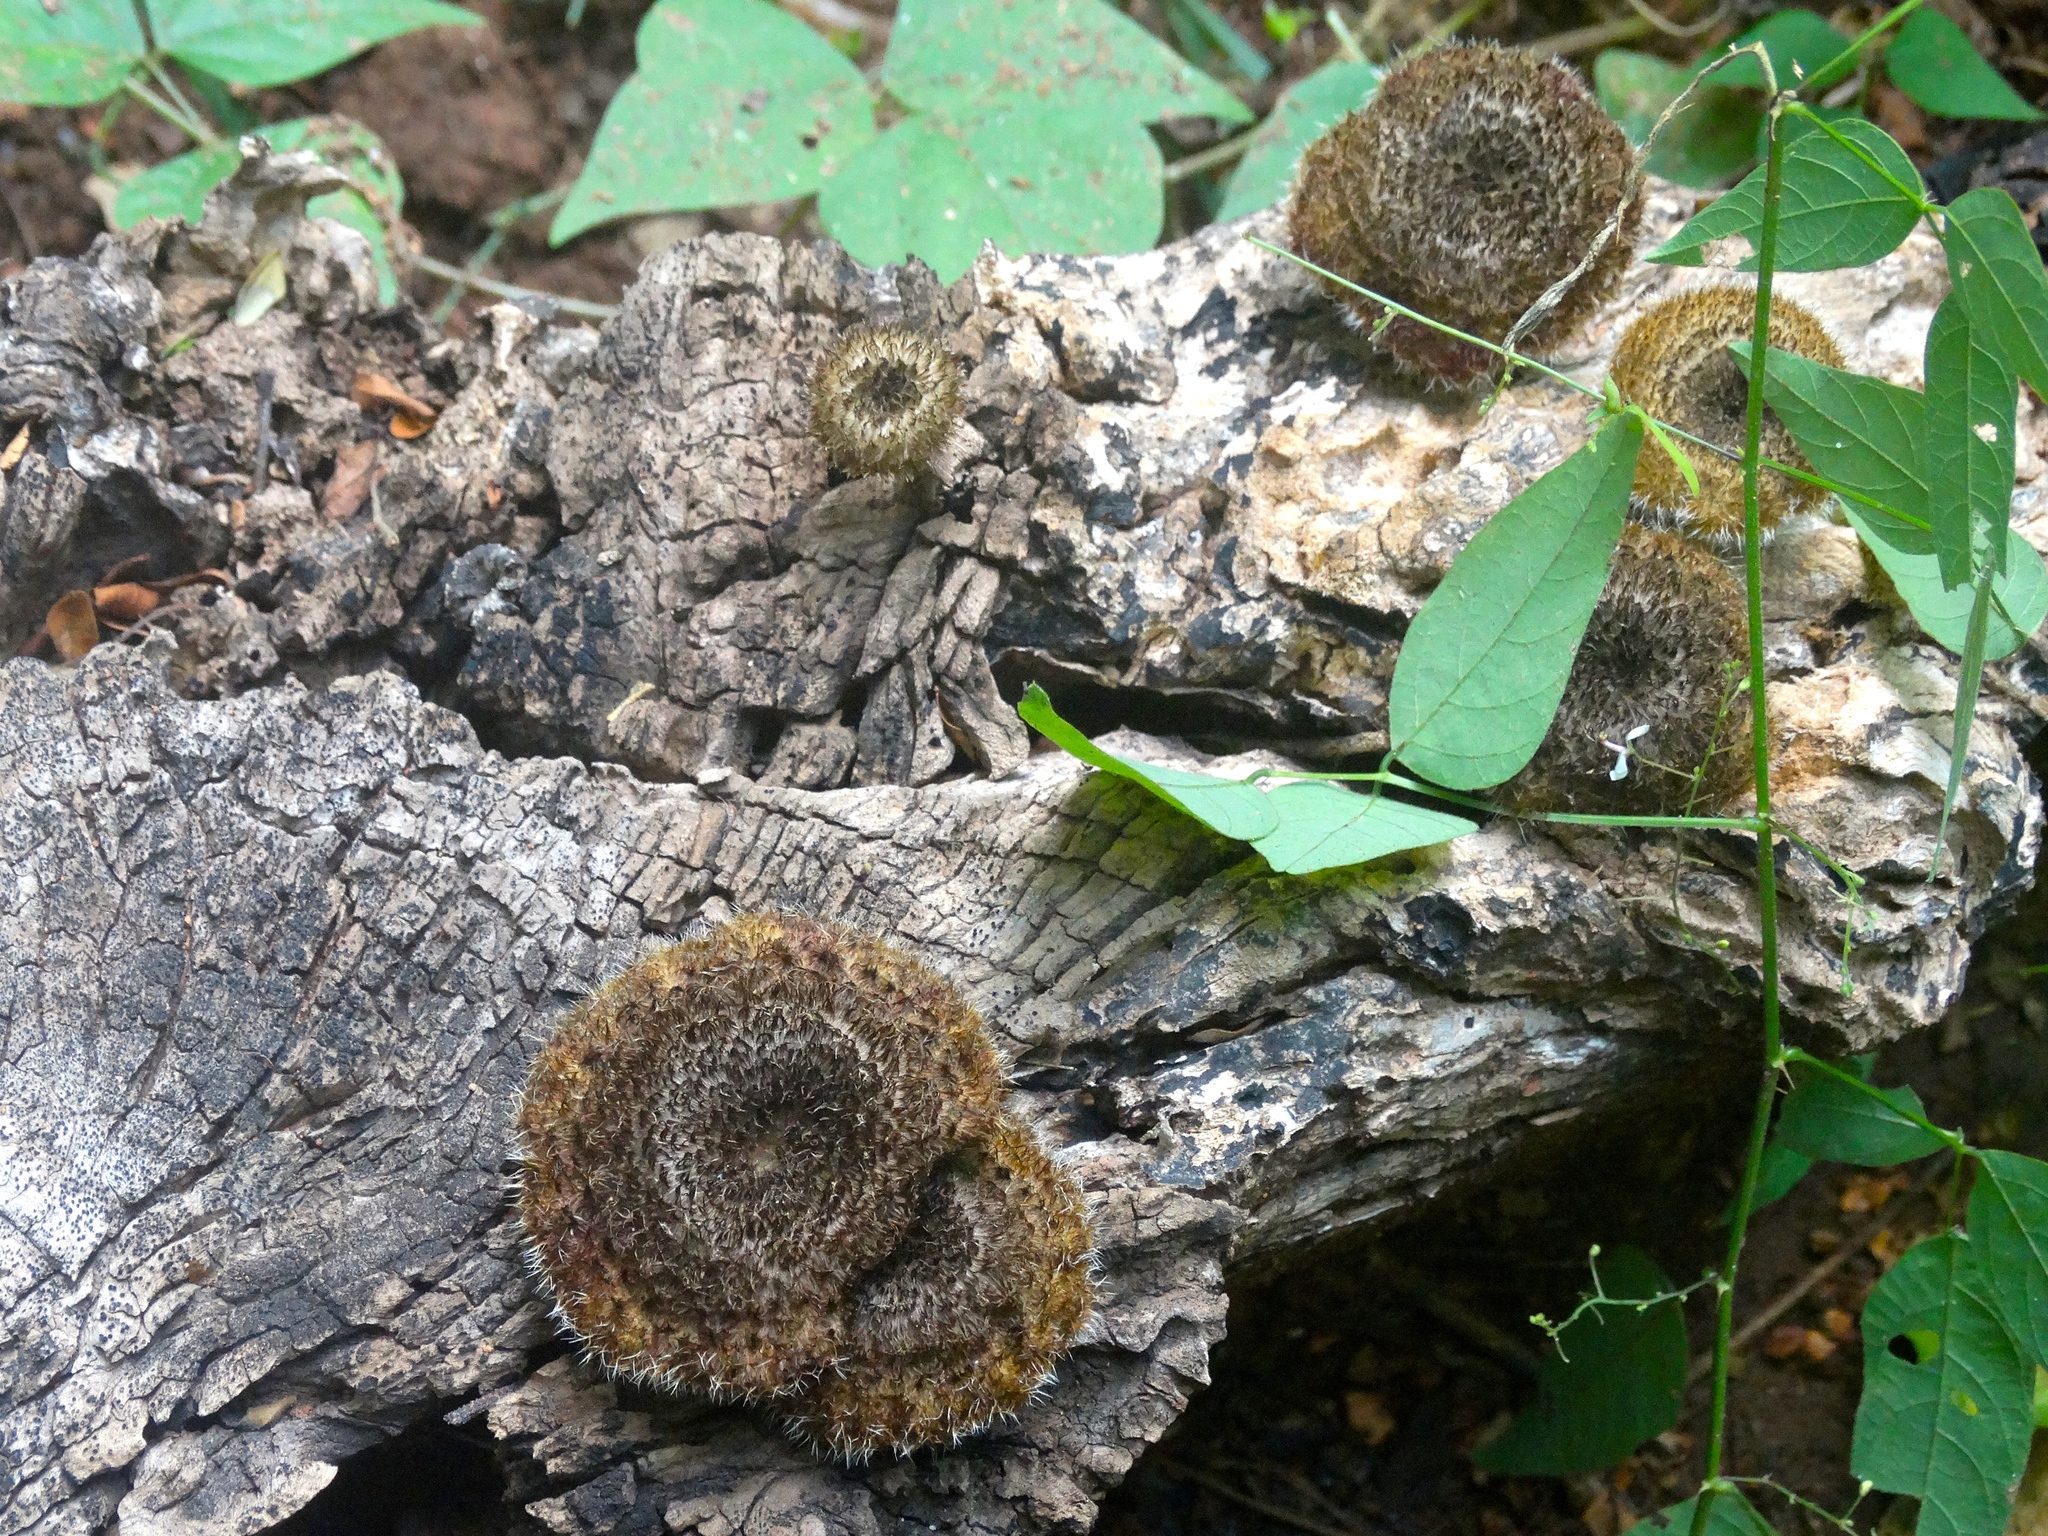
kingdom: Fungi
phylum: Basidiomycota
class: Agaricomycetes
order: Polyporales
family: Polyporaceae
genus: Lentinus
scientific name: Lentinus crinitus
